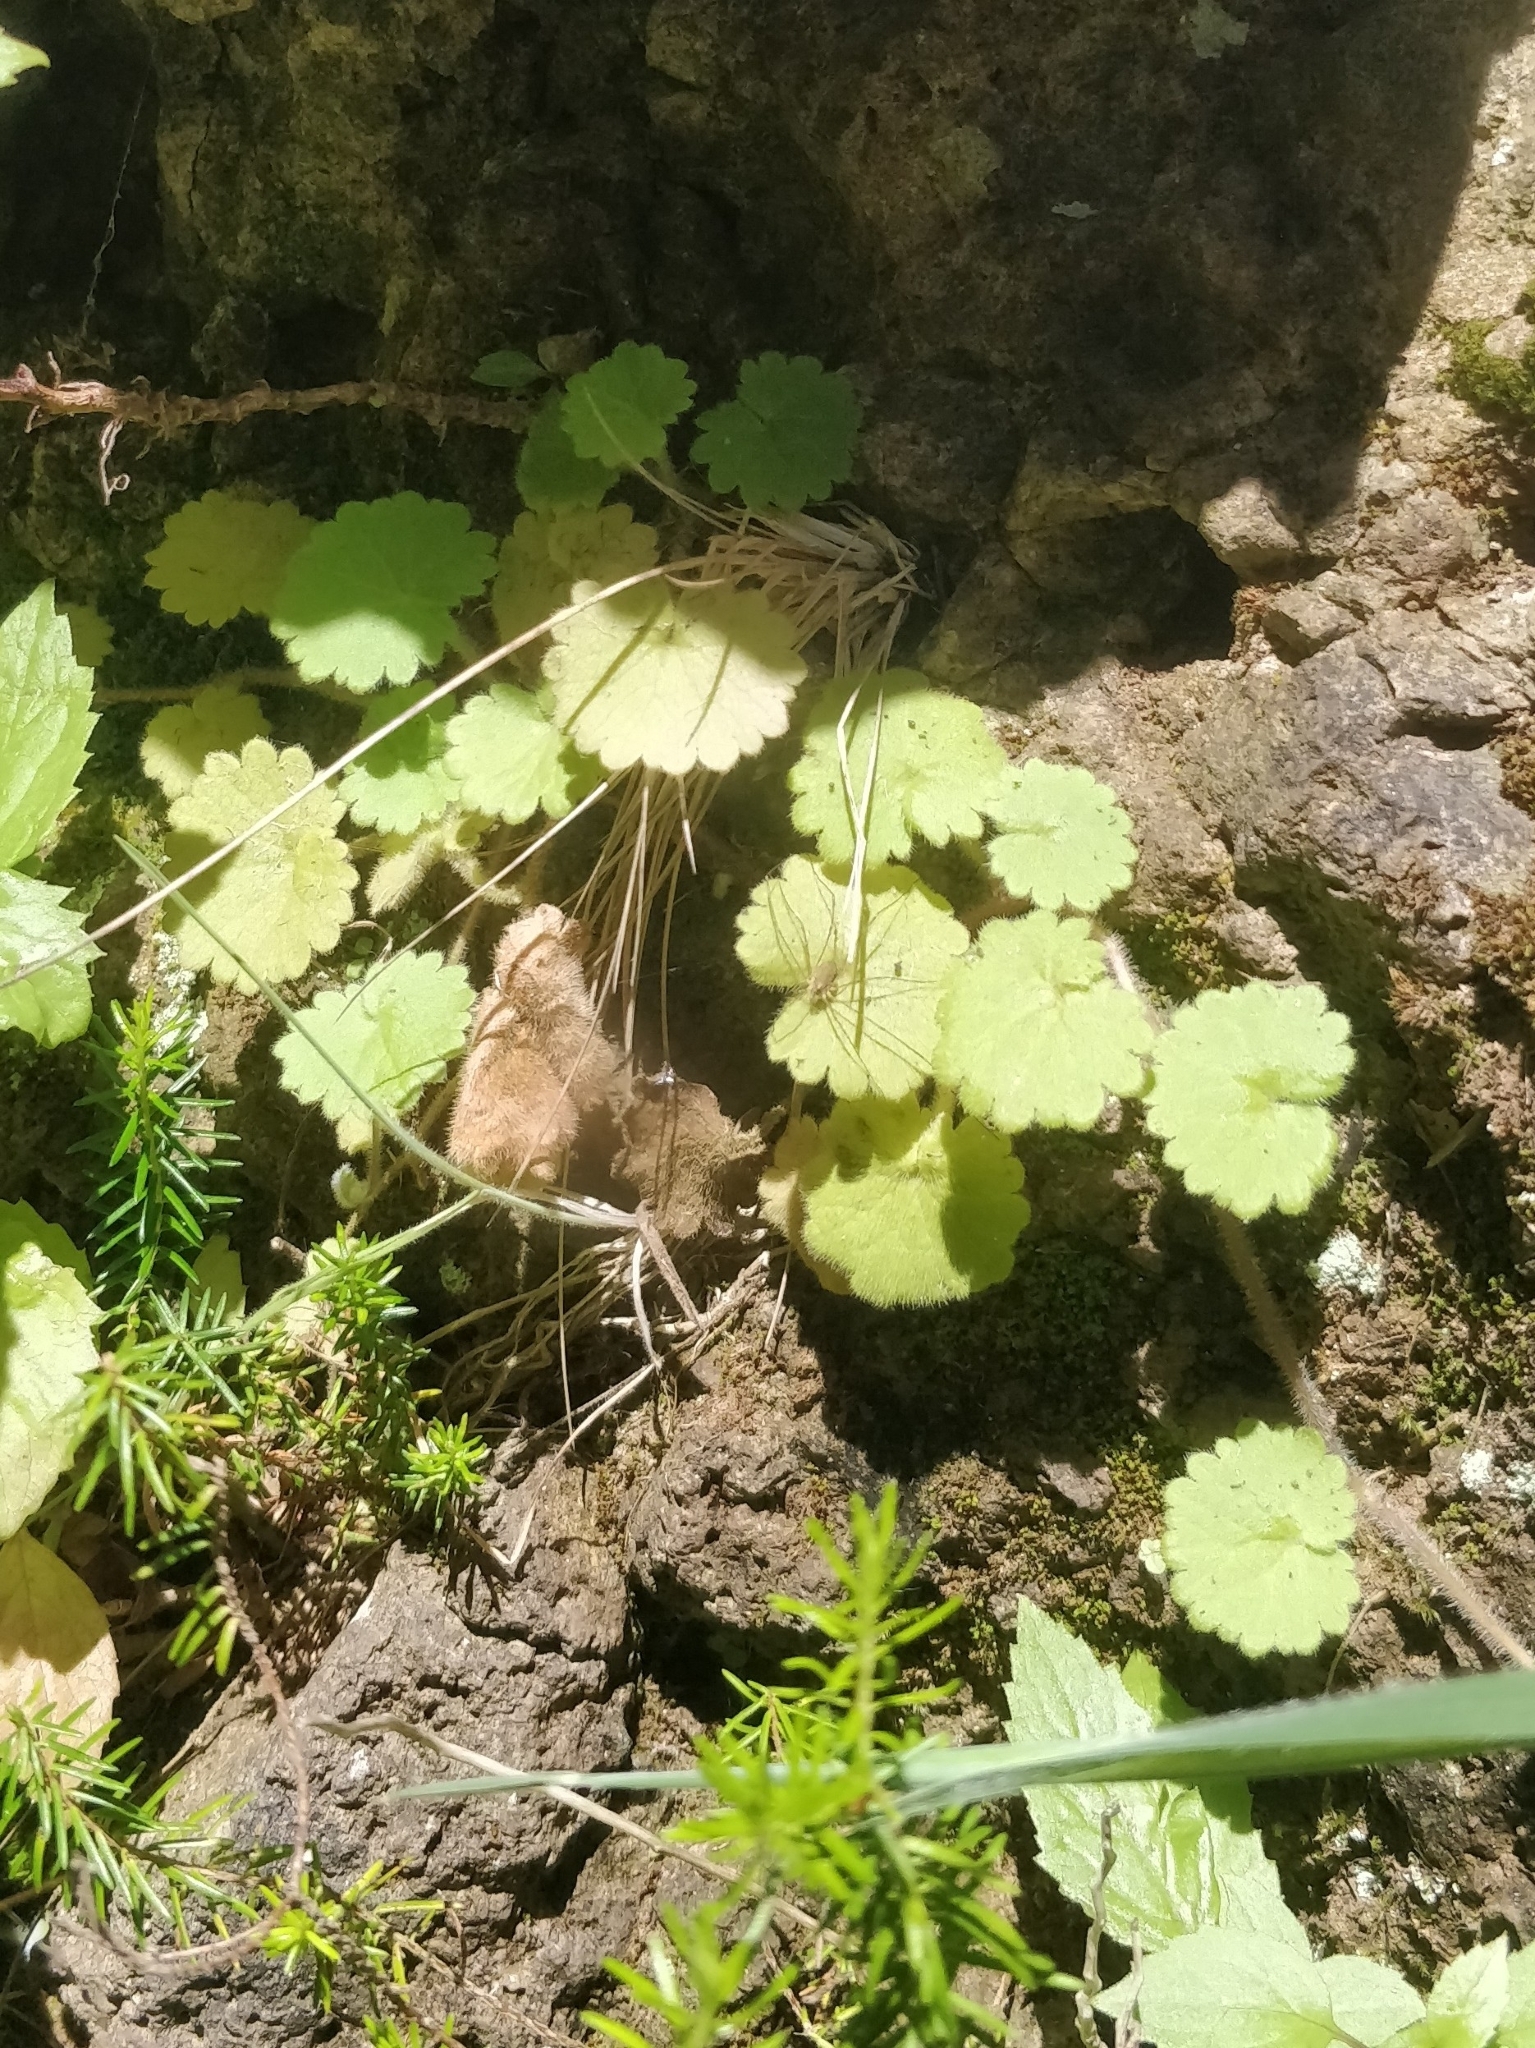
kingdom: Plantae
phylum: Tracheophyta
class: Magnoliopsida
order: Lamiales
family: Plantaginaceae
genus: Sibthorpia
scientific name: Sibthorpia peregrina
